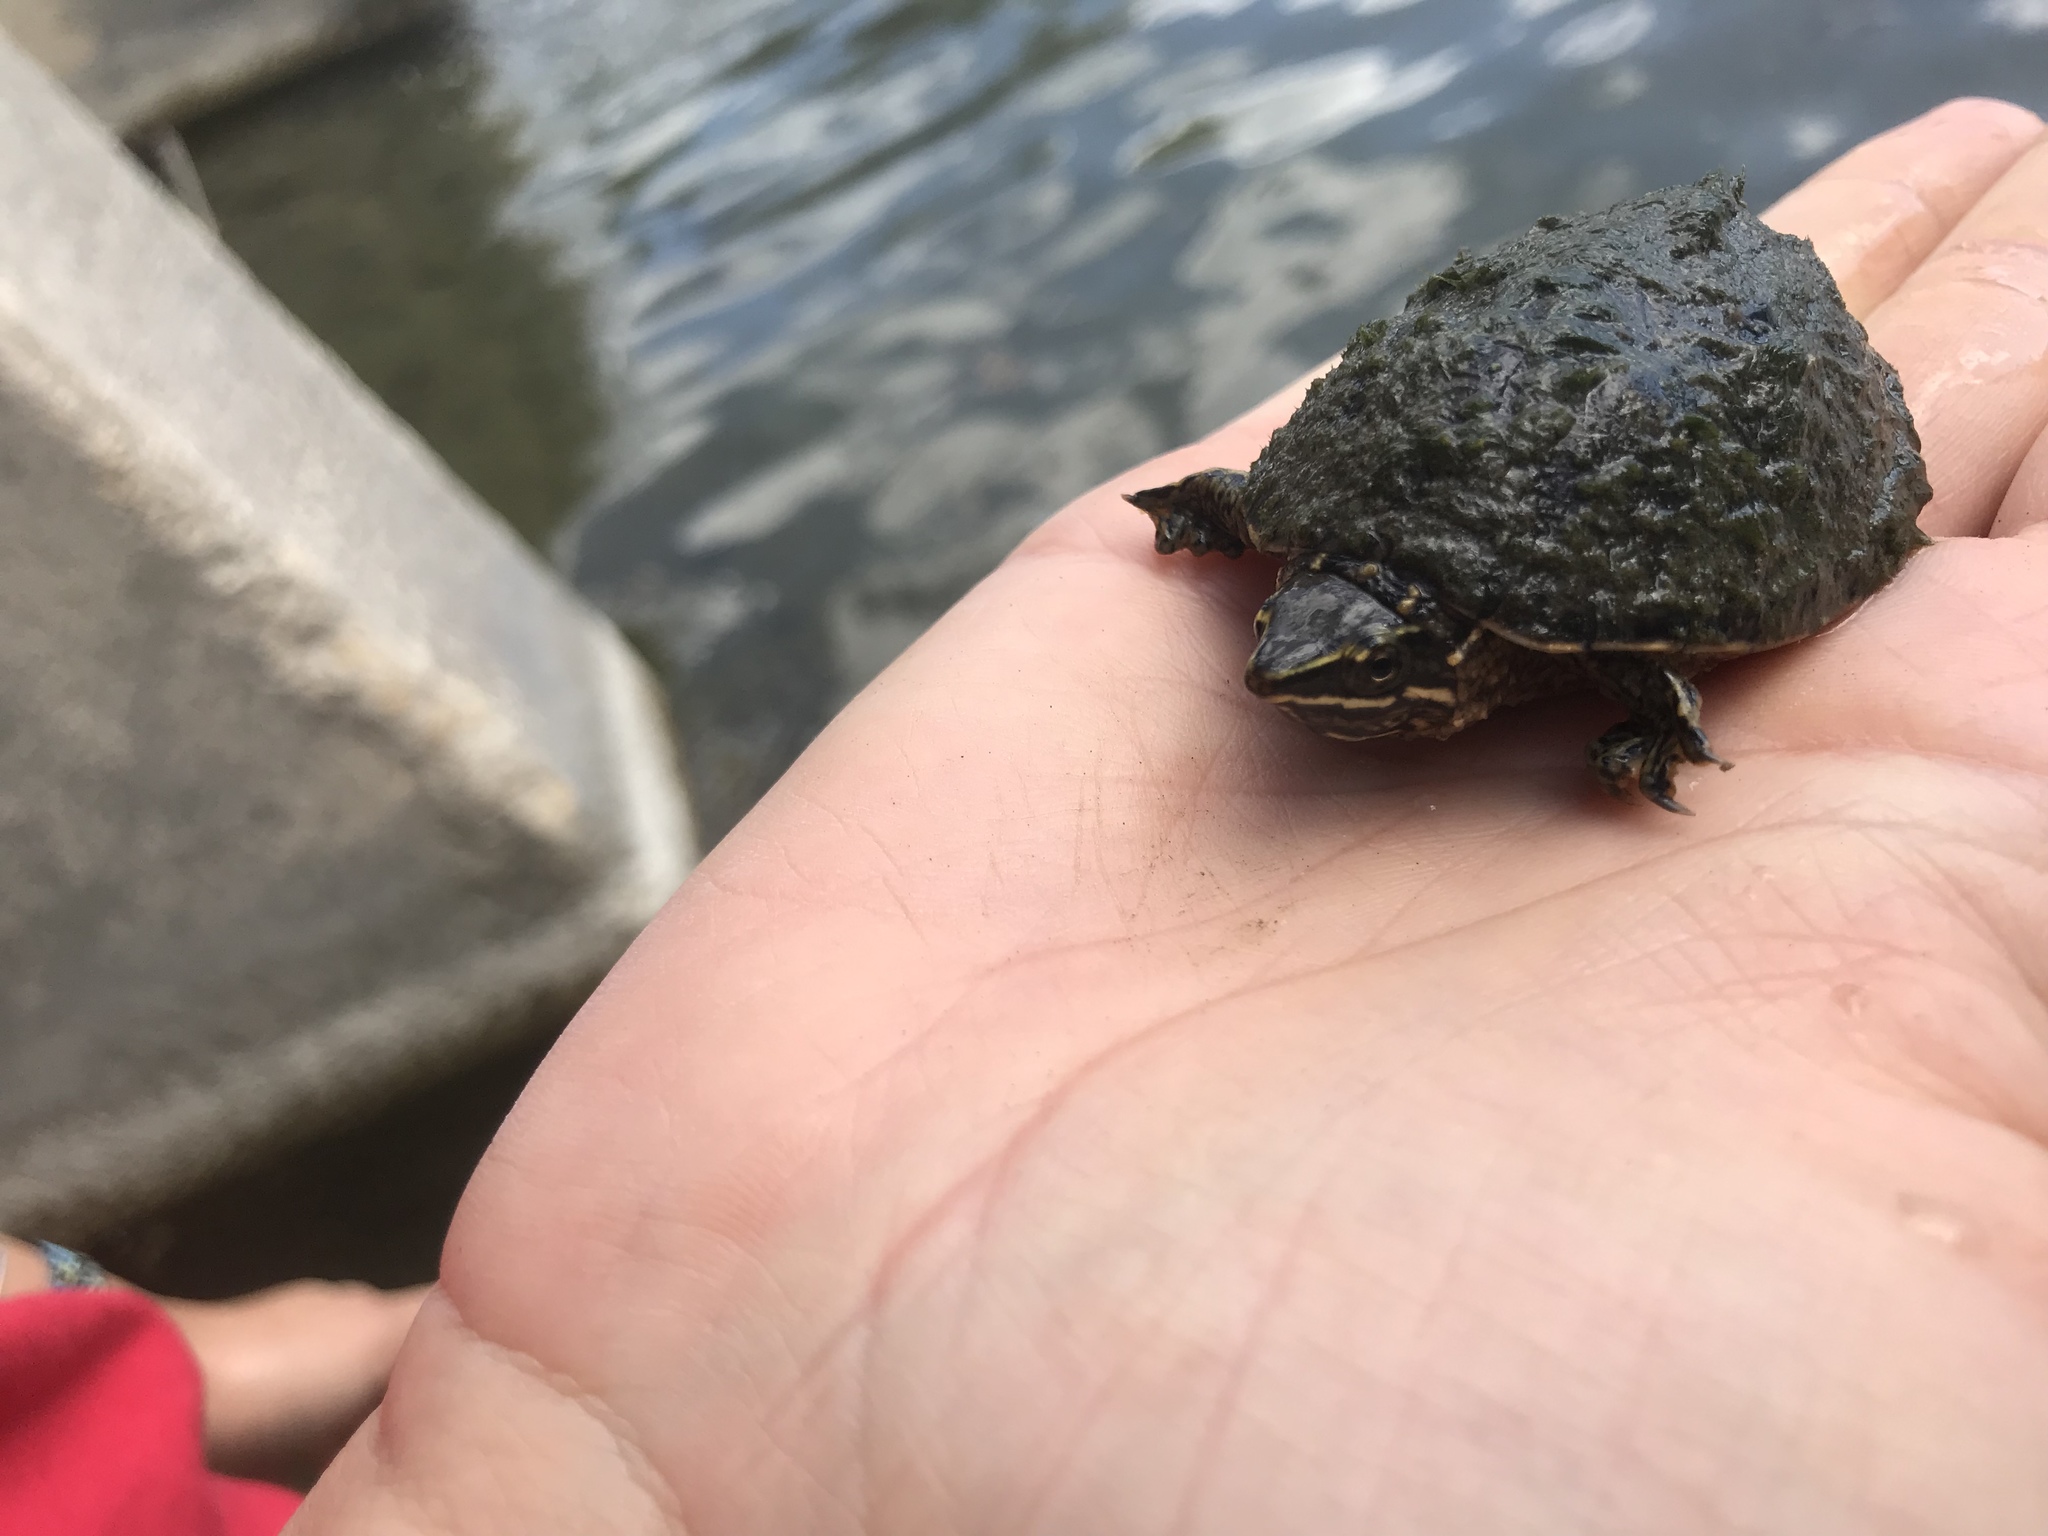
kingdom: Animalia
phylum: Chordata
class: Testudines
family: Kinosternidae
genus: Sternotherus
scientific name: Sternotherus odoratus
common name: Common musk turtle
